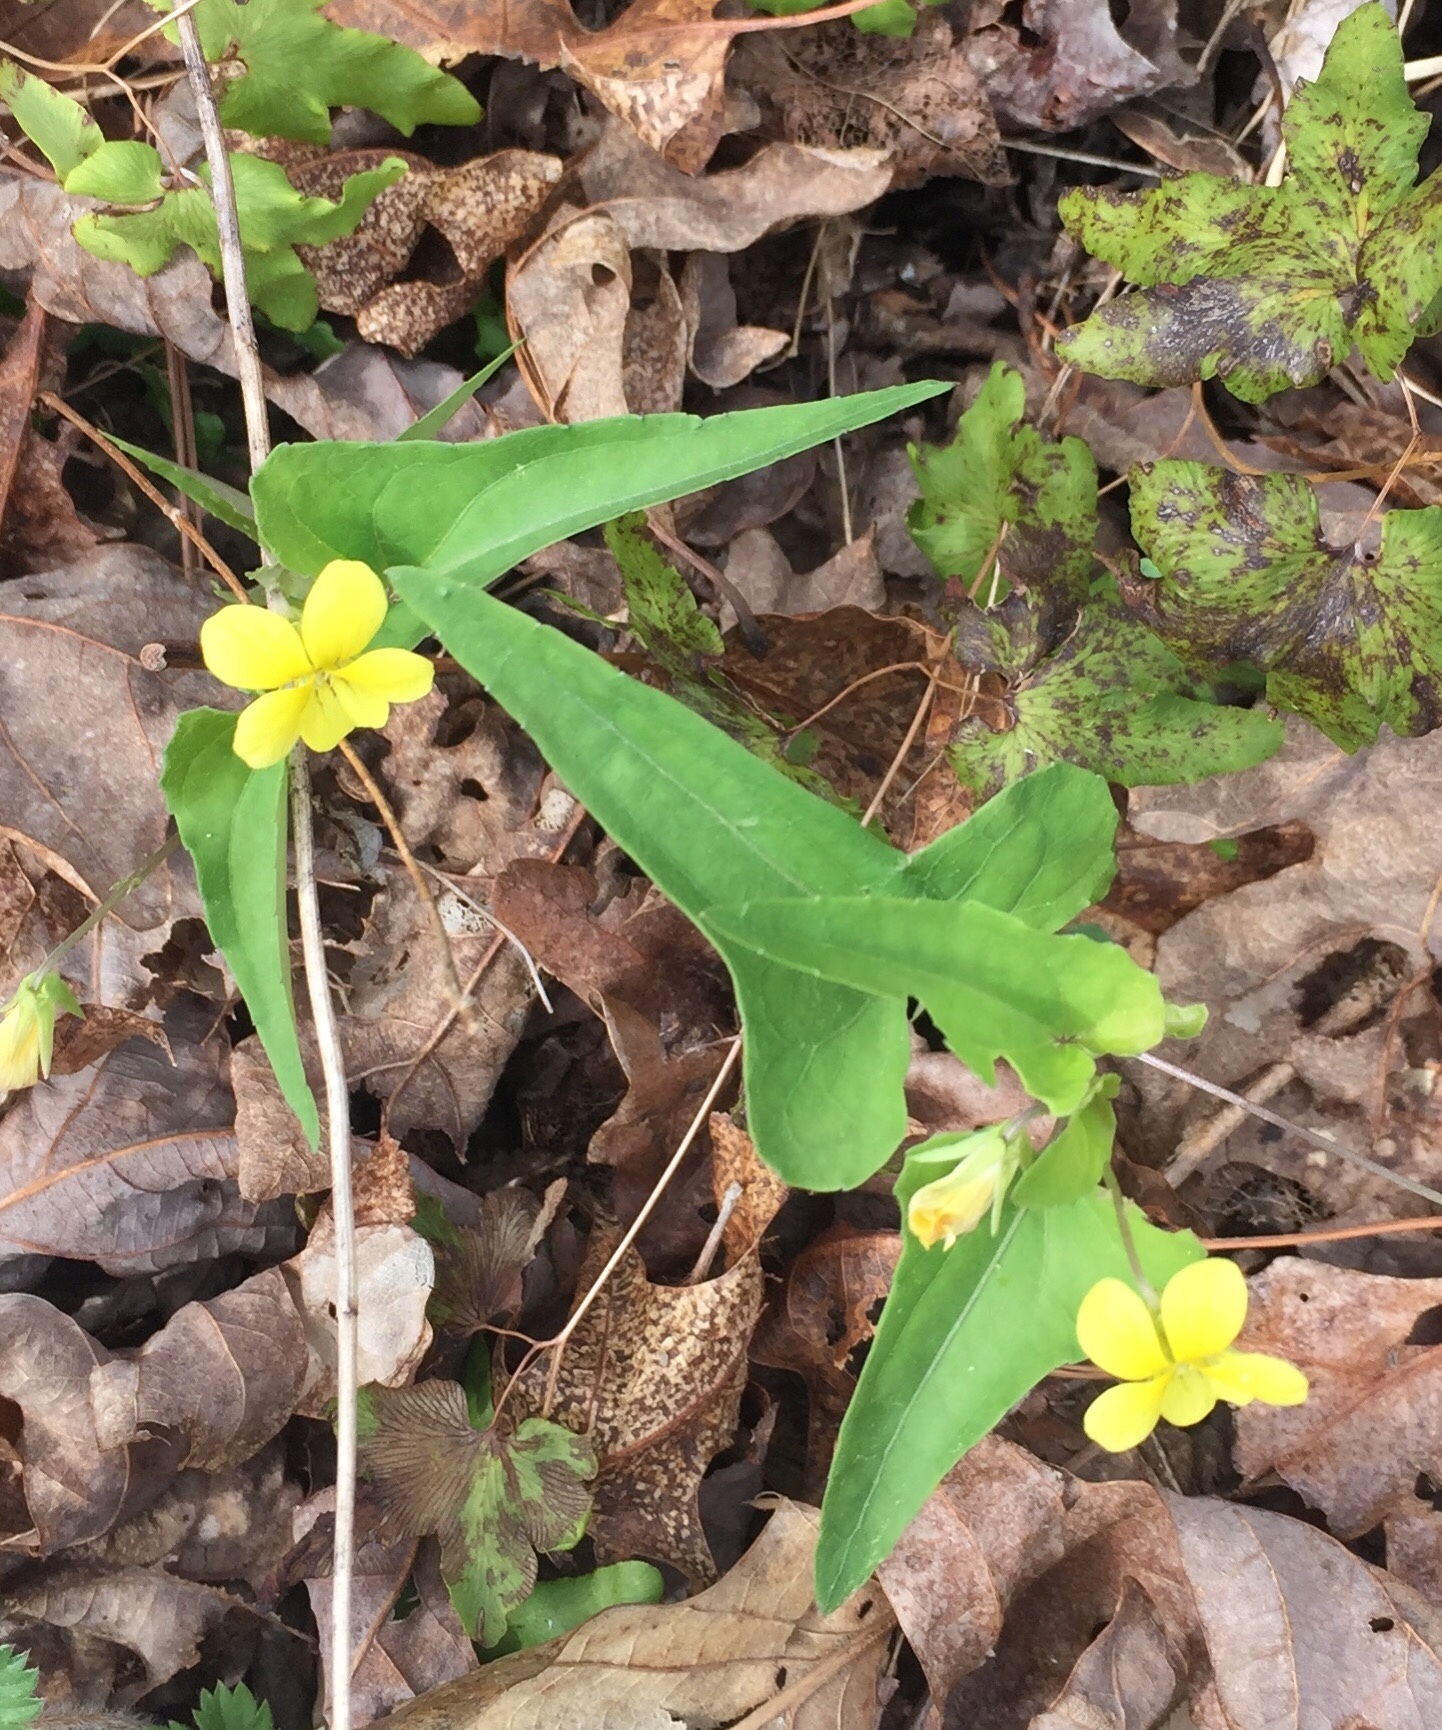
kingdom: Plantae
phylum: Tracheophyta
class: Magnoliopsida
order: Malpighiales
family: Violaceae
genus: Viola
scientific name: Viola hastata
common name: Spear-leaf violet
